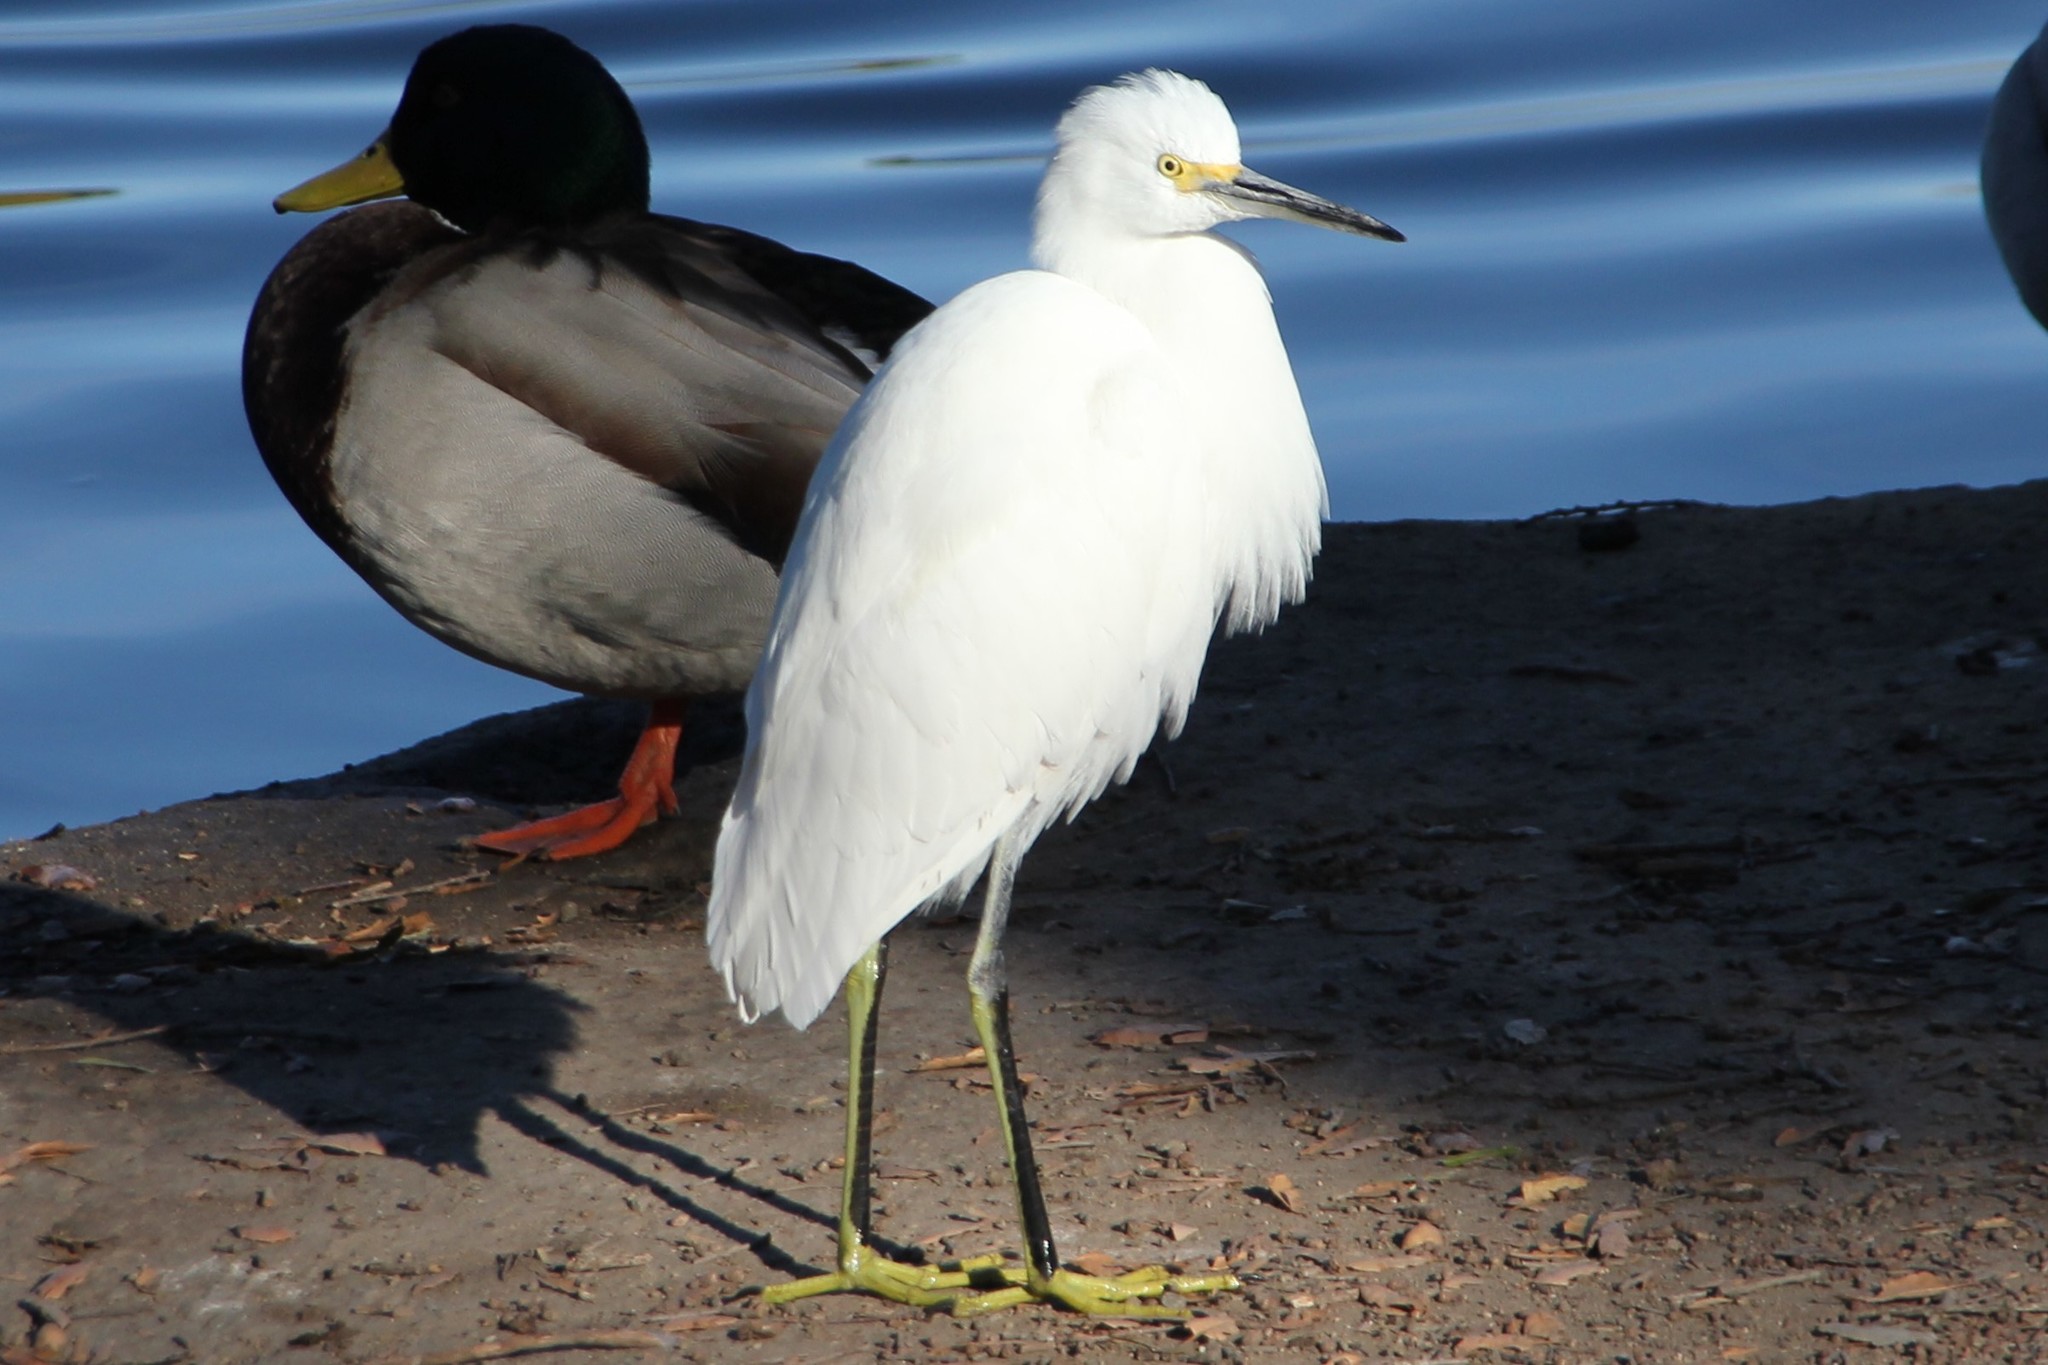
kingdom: Animalia
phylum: Chordata
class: Aves
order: Pelecaniformes
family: Ardeidae
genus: Egretta
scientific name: Egretta thula
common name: Snowy egret
